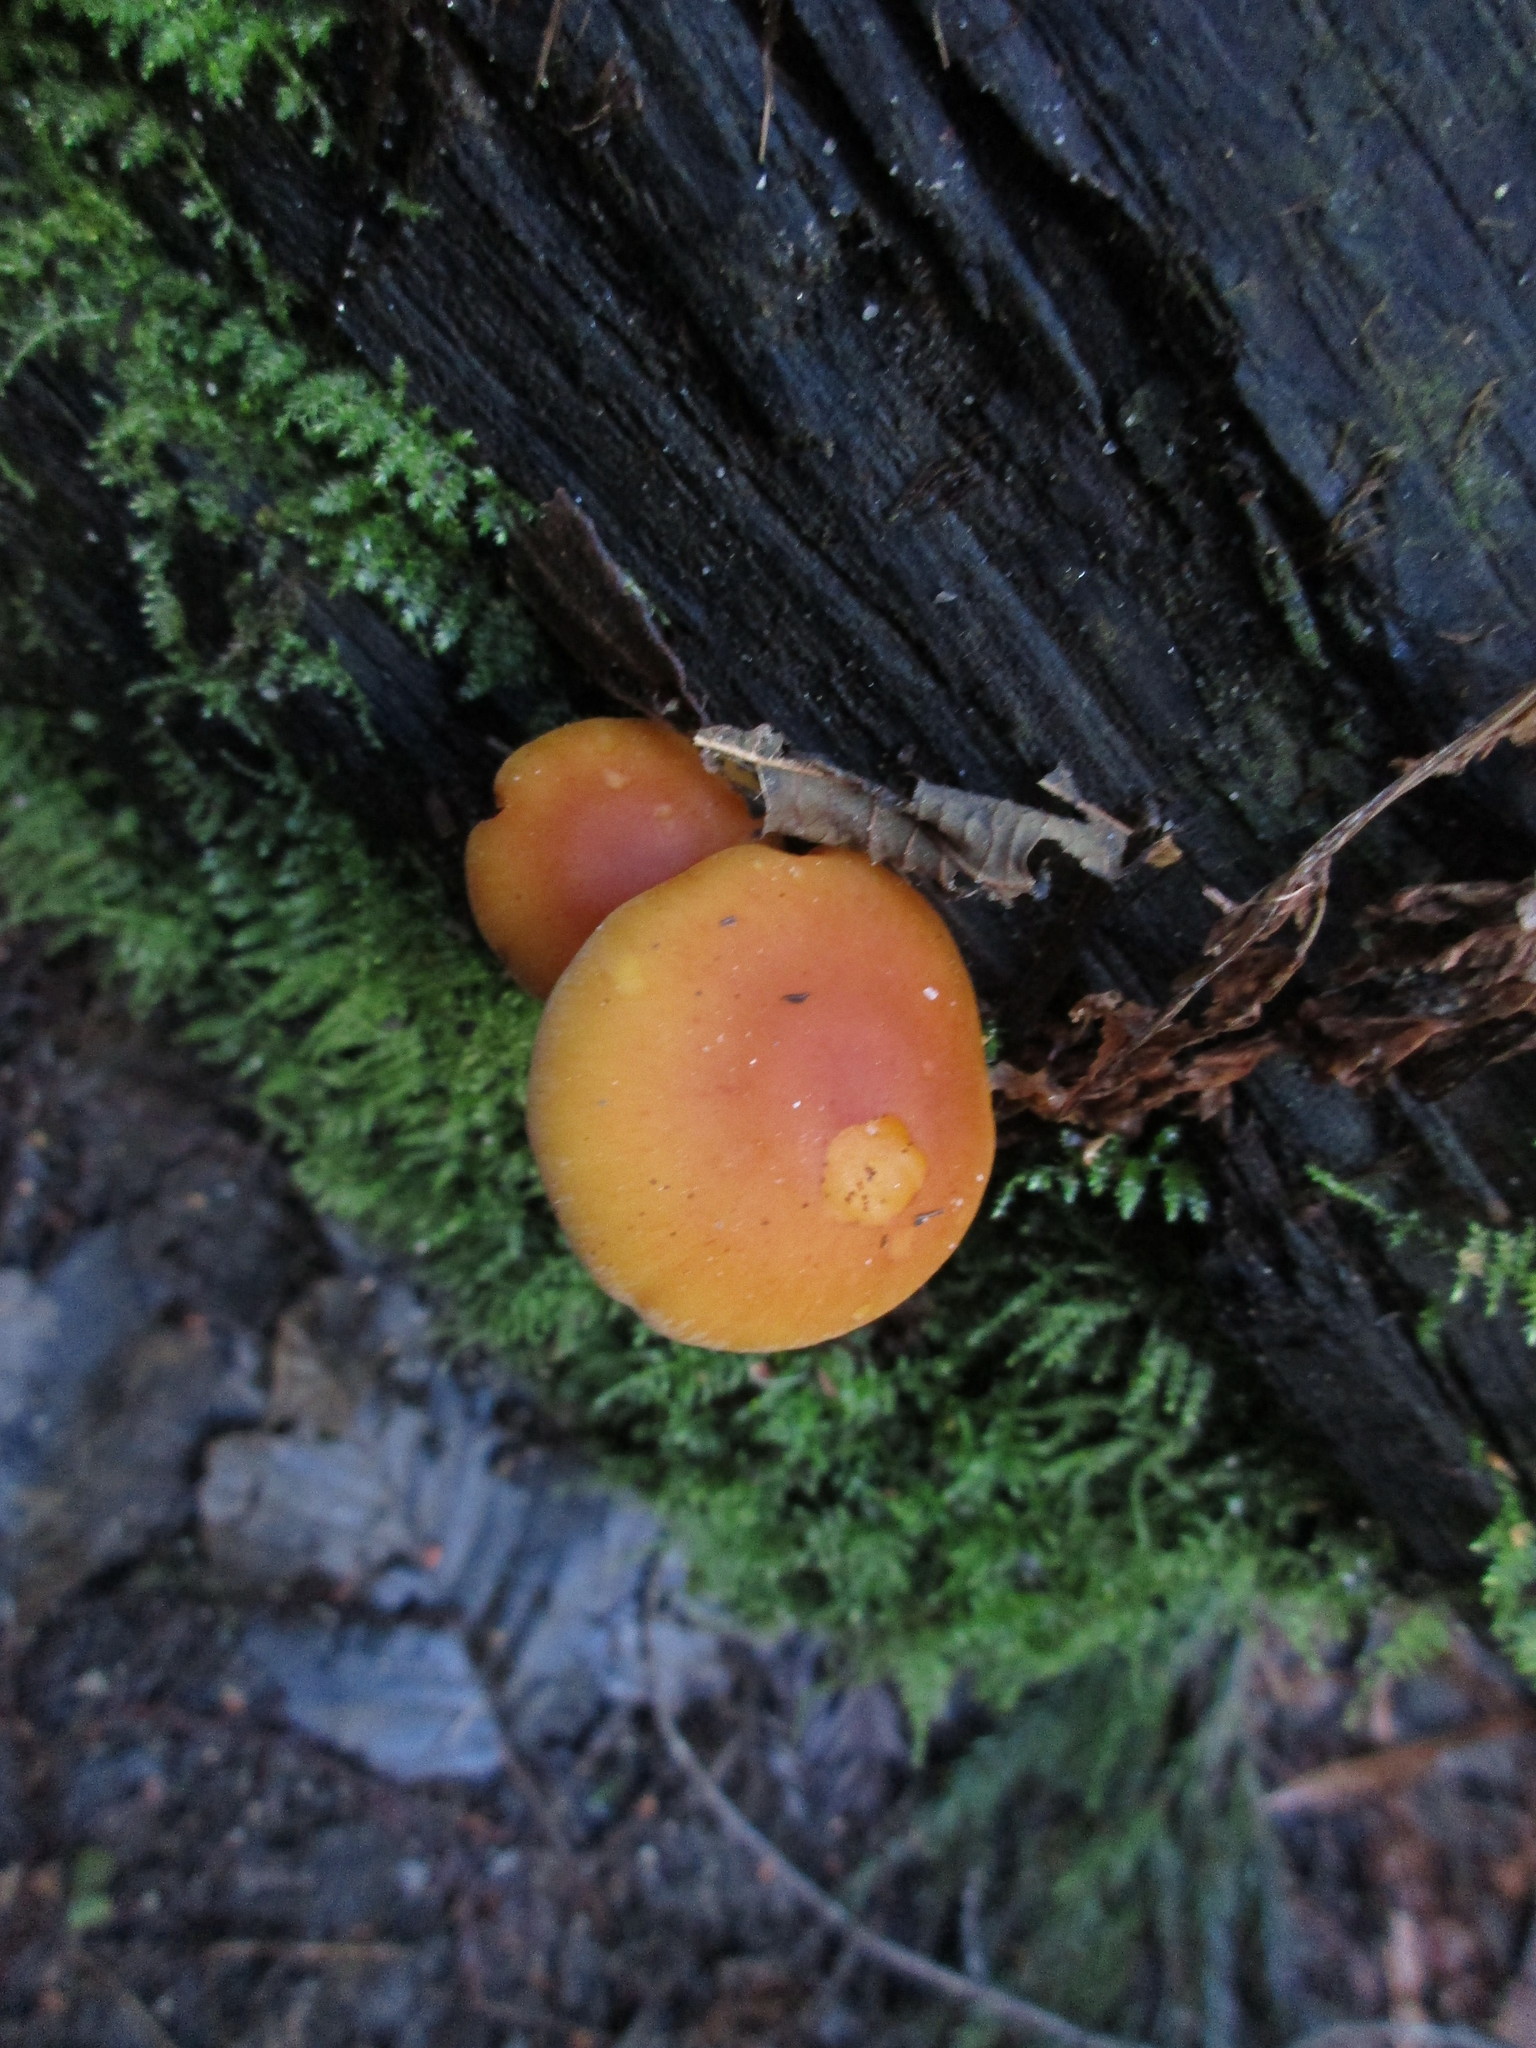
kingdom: Fungi
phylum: Basidiomycota
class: Agaricomycetes
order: Agaricales
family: Strophariaceae
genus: Hypholoma
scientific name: Hypholoma capnoides
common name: Conifer tuft
